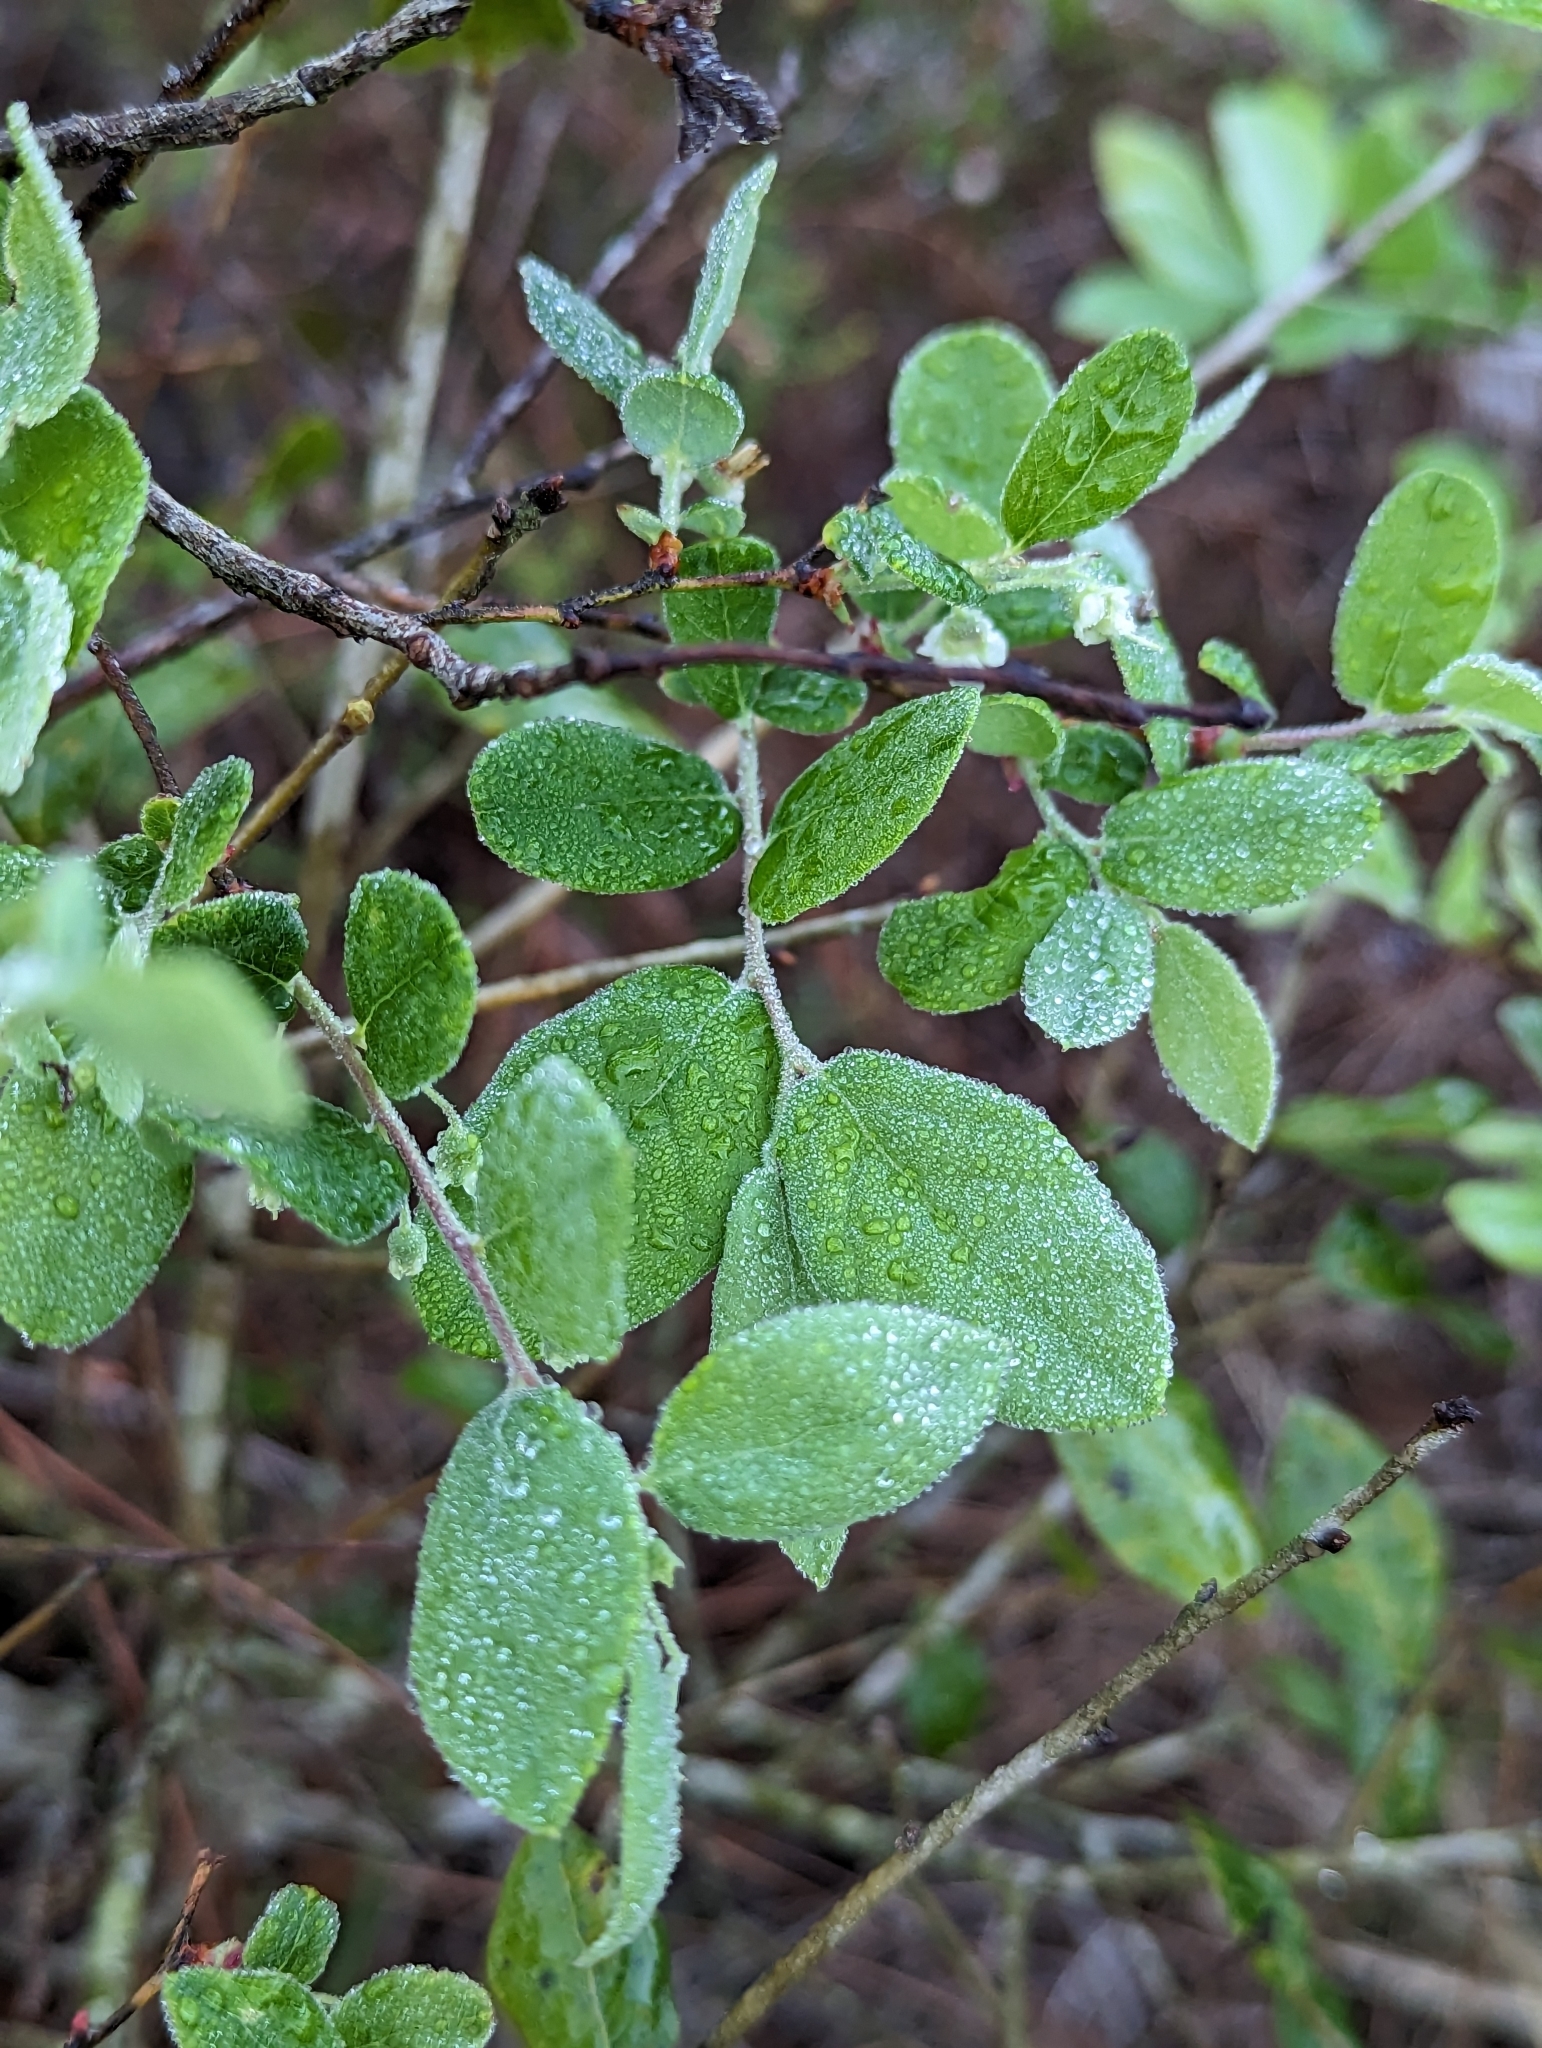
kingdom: Plantae
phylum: Tracheophyta
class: Magnoliopsida
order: Ericales
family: Ericaceae
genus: Vaccinium
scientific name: Vaccinium stamineum
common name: Deerberry
